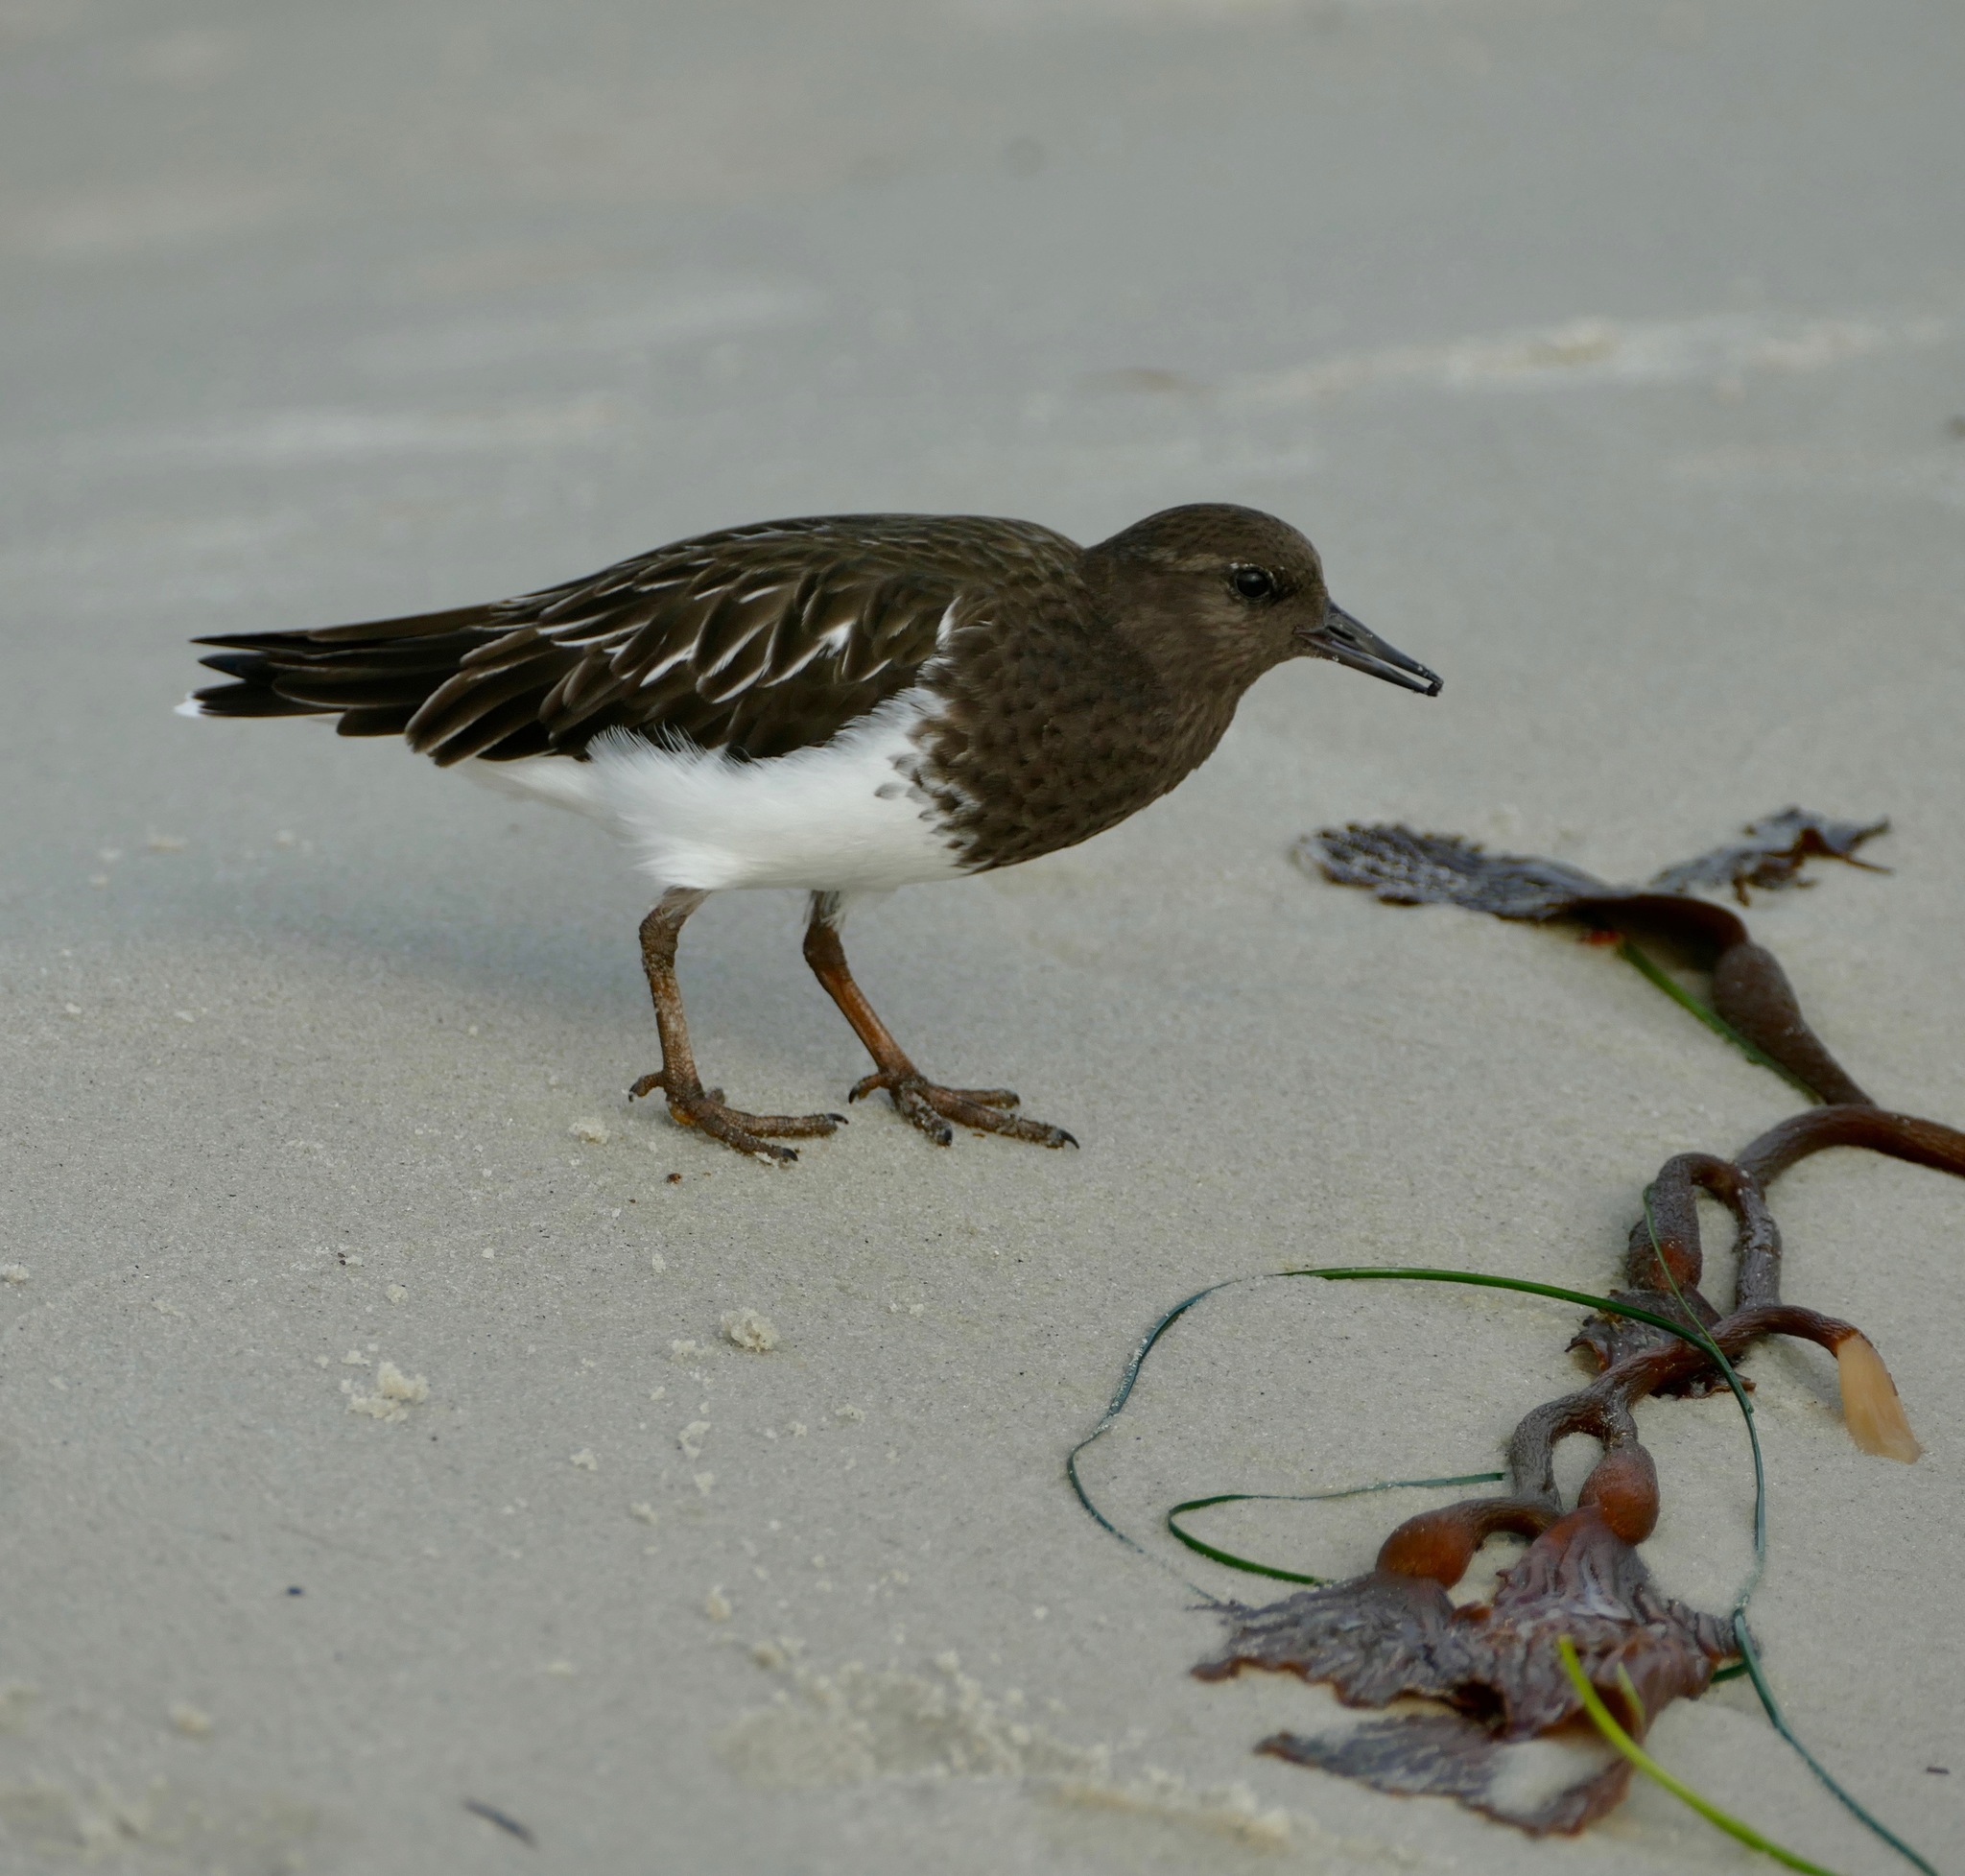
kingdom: Animalia
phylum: Chordata
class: Aves
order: Charadriiformes
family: Scolopacidae
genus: Arenaria
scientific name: Arenaria melanocephala
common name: Black turnstone
